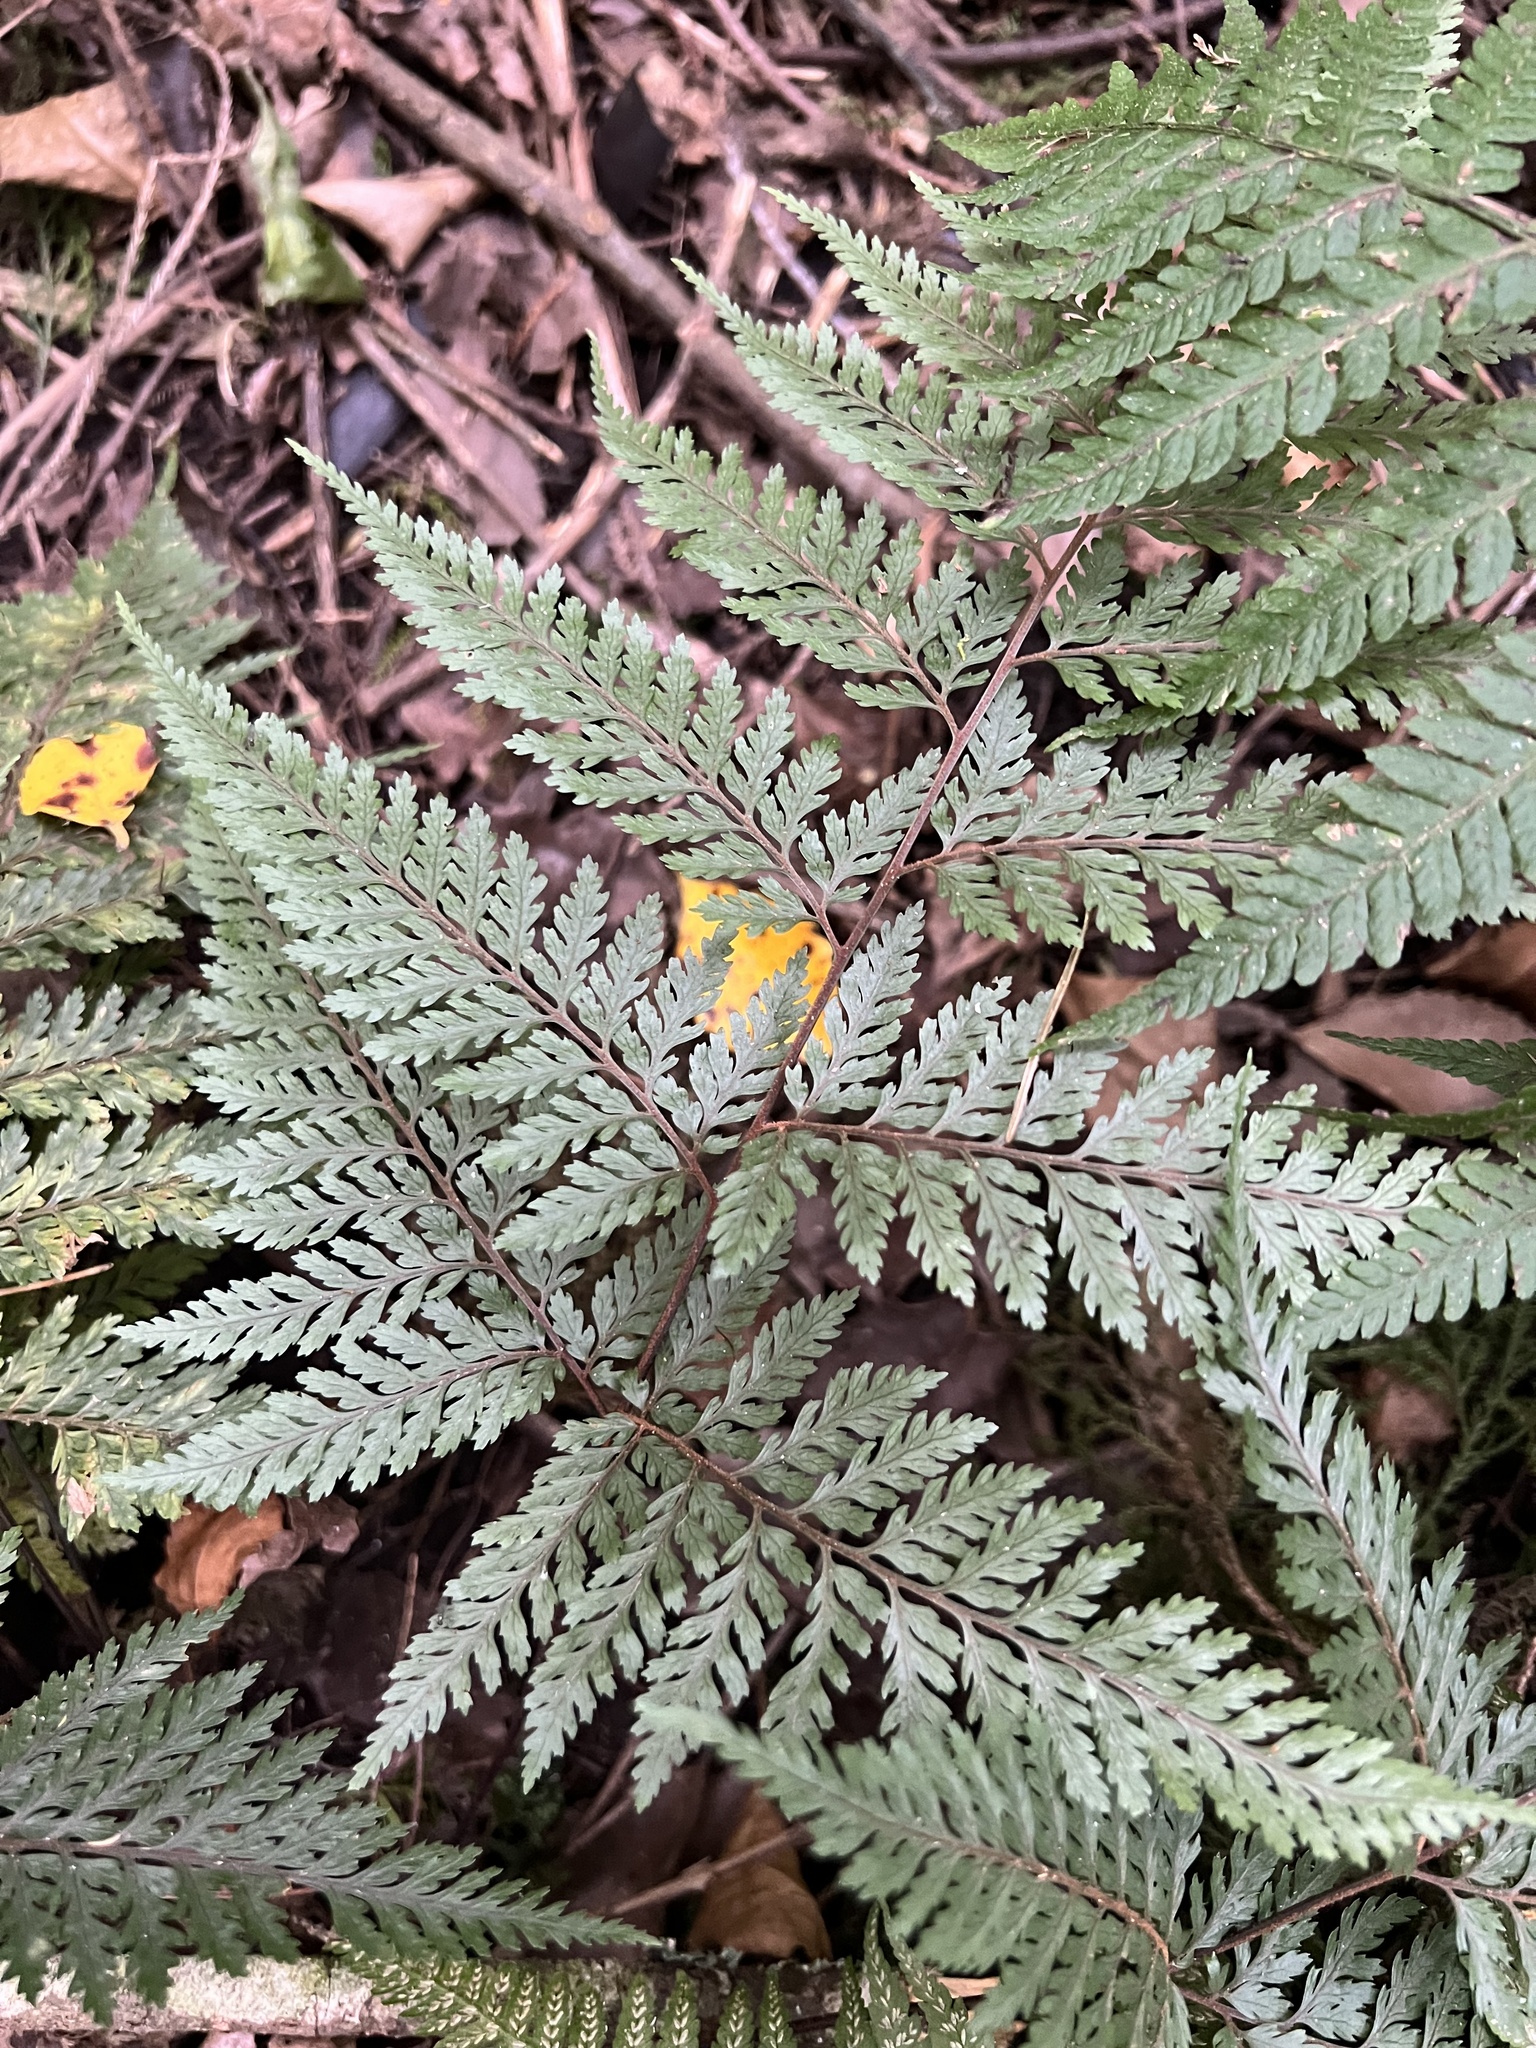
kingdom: Plantae
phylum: Tracheophyta
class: Polypodiopsida
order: Polypodiales
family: Dryopteridaceae
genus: Parapolystichum
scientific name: Parapolystichum glabellum
